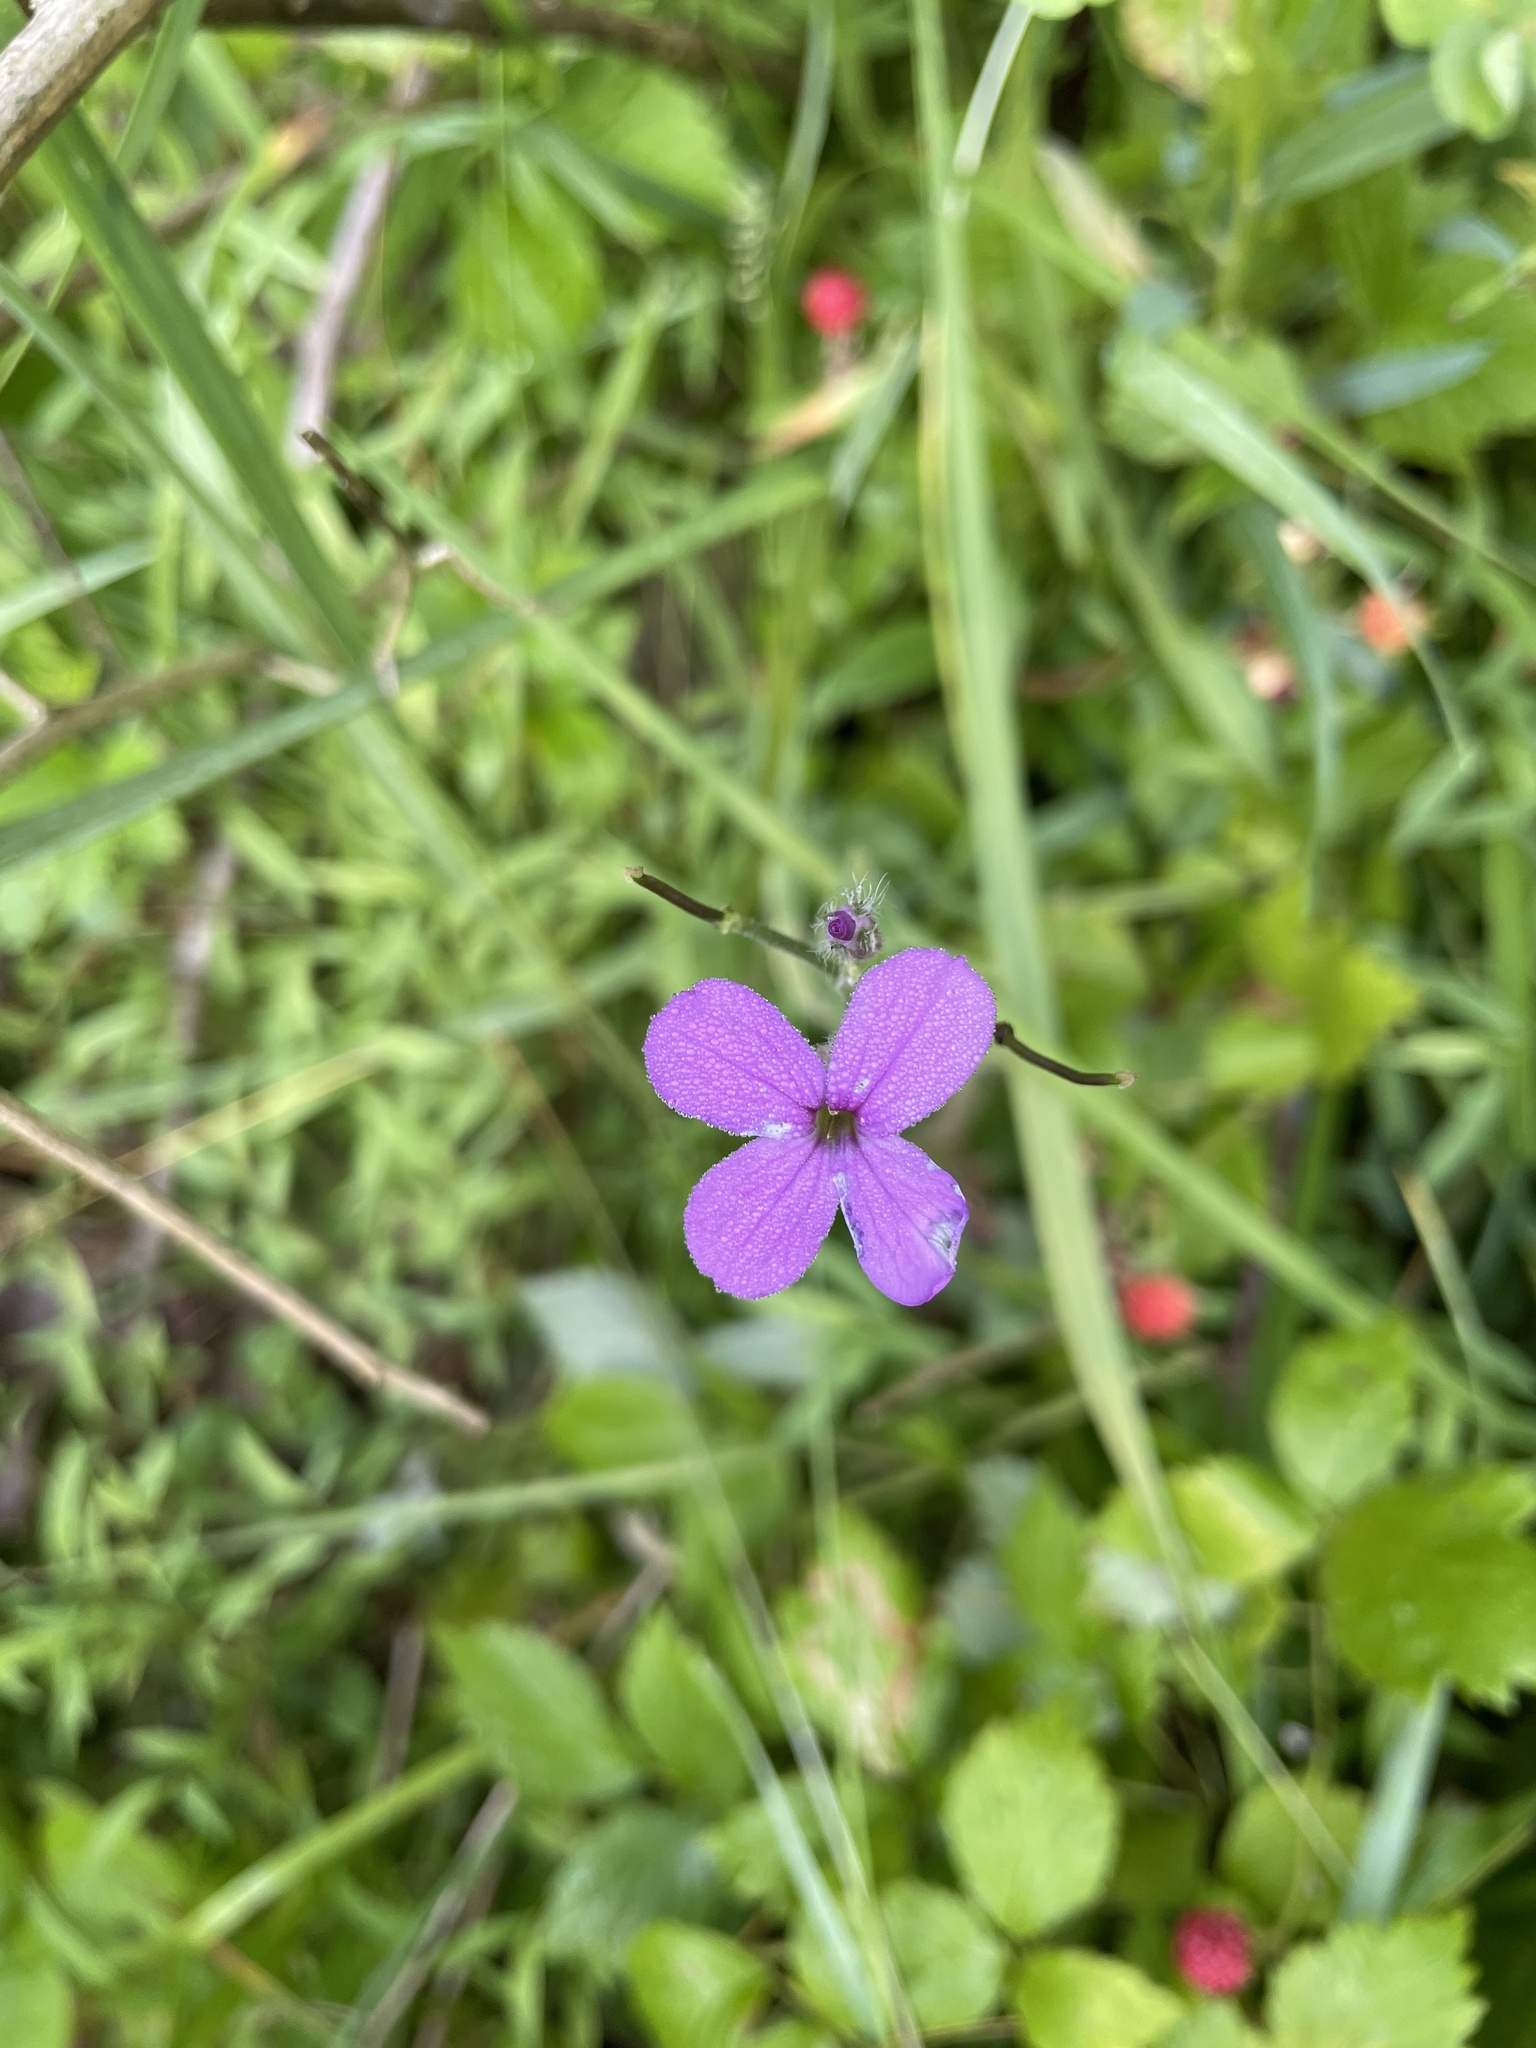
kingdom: Plantae
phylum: Tracheophyta
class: Magnoliopsida
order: Brassicales
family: Brassicaceae
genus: Hesperis
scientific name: Hesperis matronalis
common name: Dame's-violet
